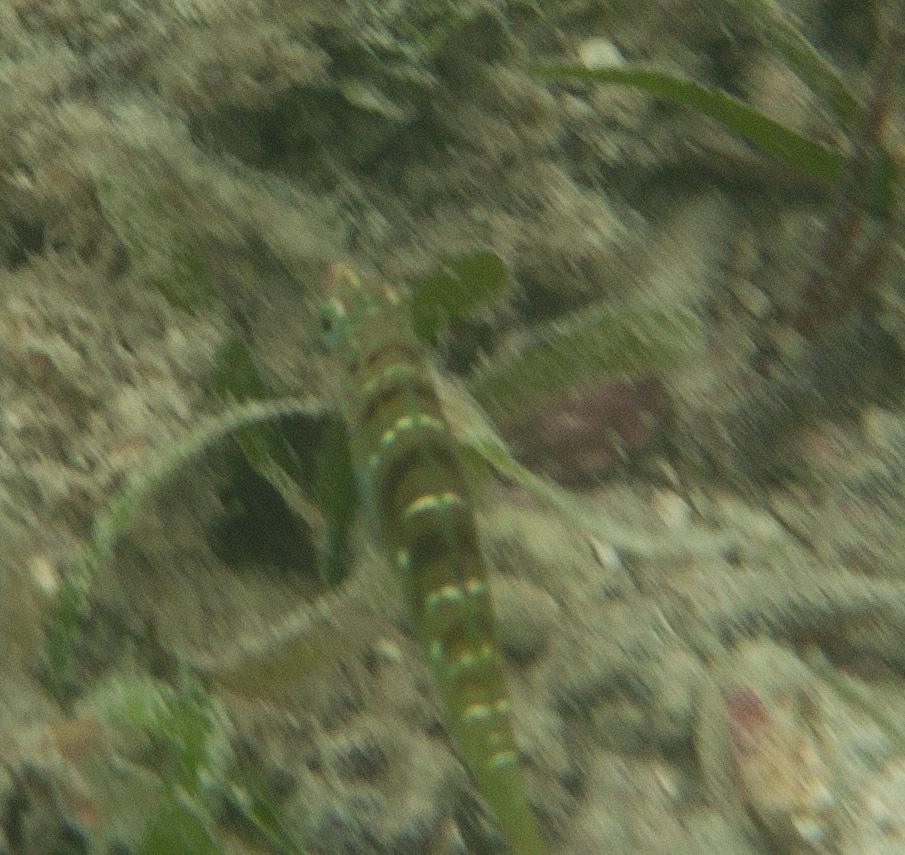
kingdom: Animalia
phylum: Chordata
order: Perciformes
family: Labridae
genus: Coris
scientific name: Coris batuensis
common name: Batu coris
